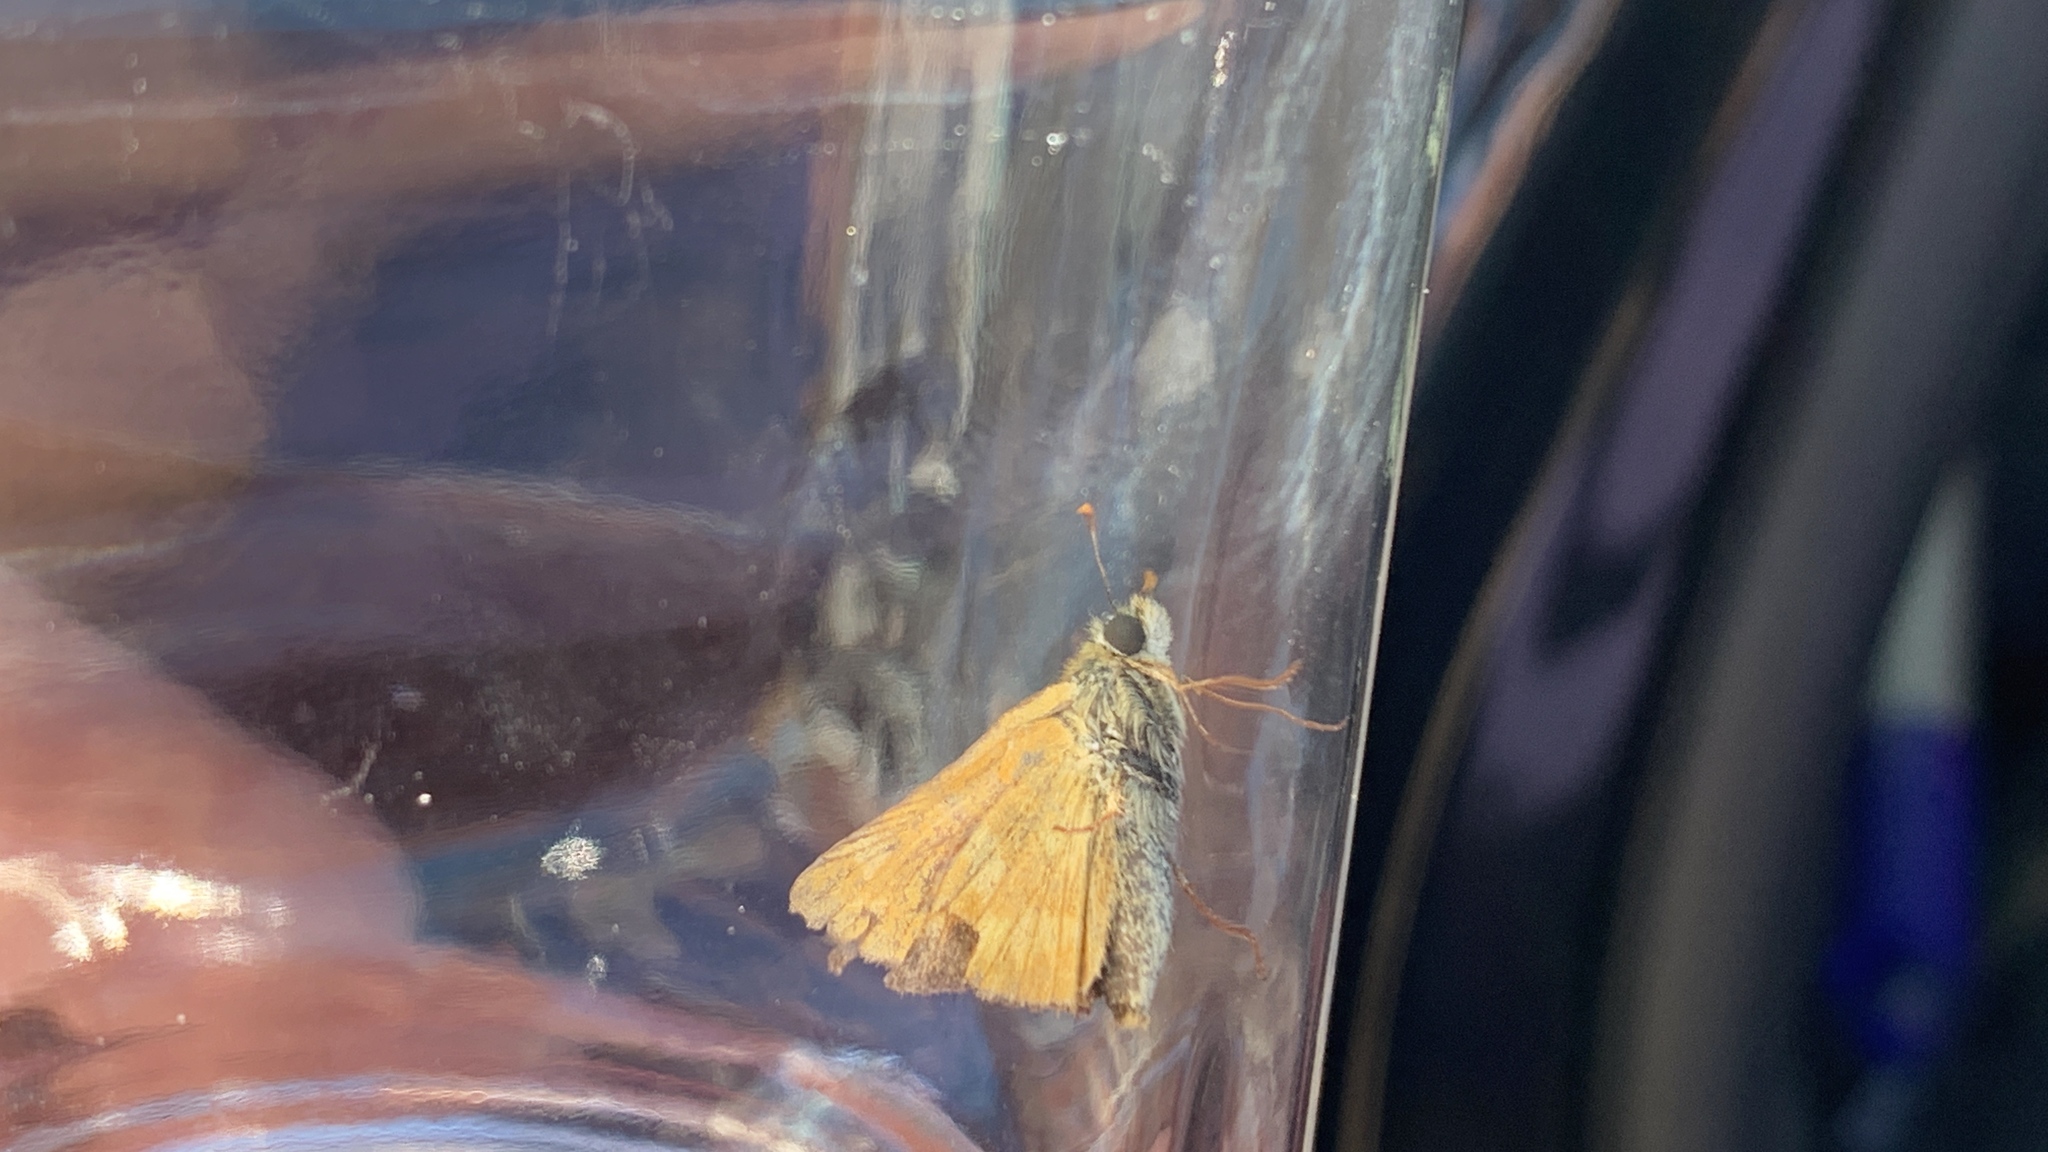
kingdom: Animalia
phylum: Arthropoda
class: Insecta
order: Lepidoptera
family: Hesperiidae
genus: Ochlodes
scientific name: Ochlodes sylvanoides
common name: Woodland skipper
